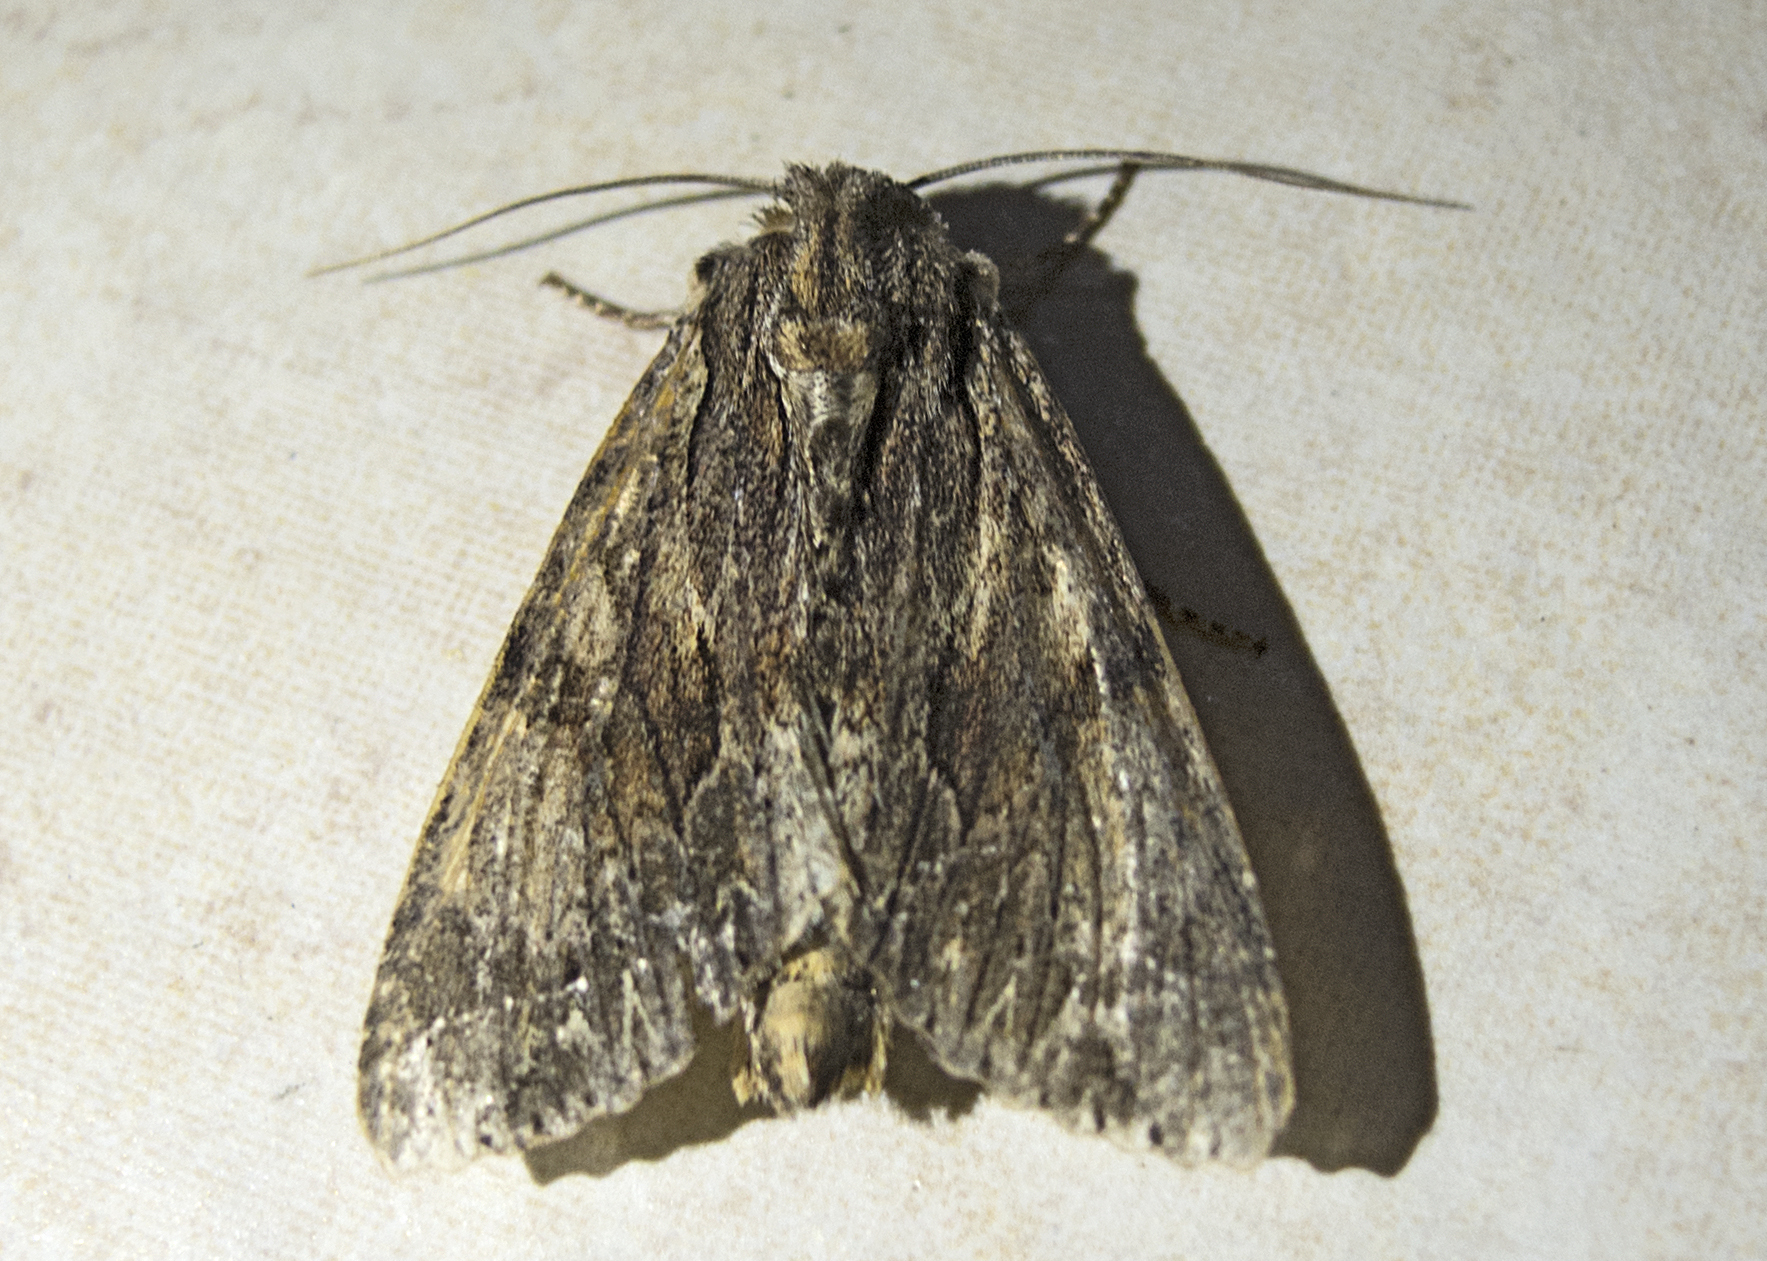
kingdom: Animalia
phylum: Arthropoda
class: Insecta
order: Lepidoptera
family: Noctuidae
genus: Apamea
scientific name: Apamea monoglypha
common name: Dark arches
